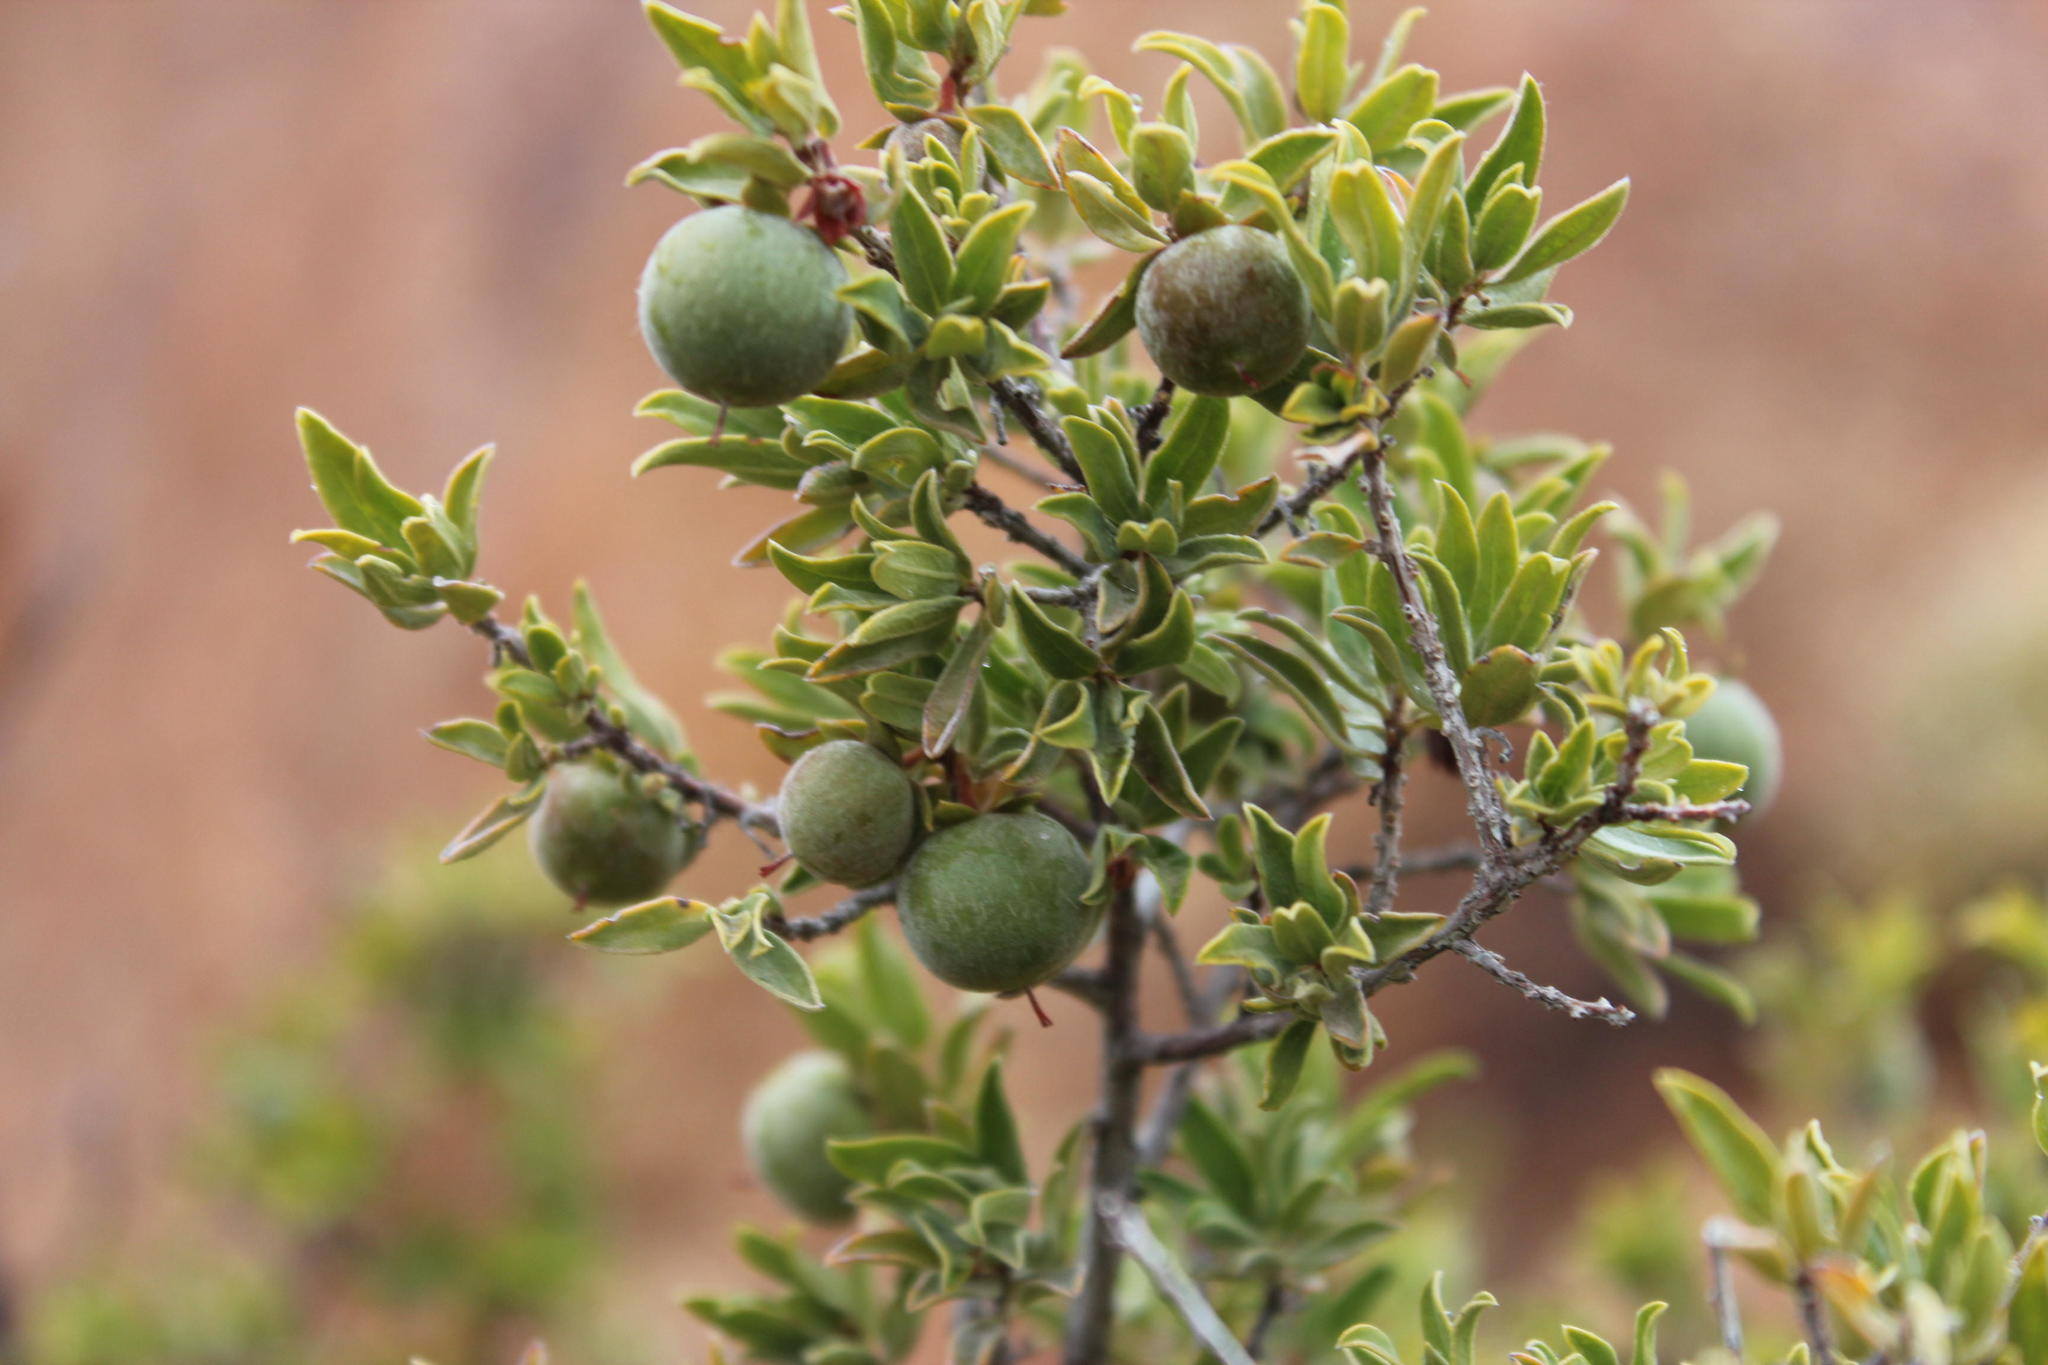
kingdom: Plantae
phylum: Tracheophyta
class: Magnoliopsida
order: Ericales
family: Ebenaceae
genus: Diospyros
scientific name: Diospyros ramulosa
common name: Namaqua fire-sticks
